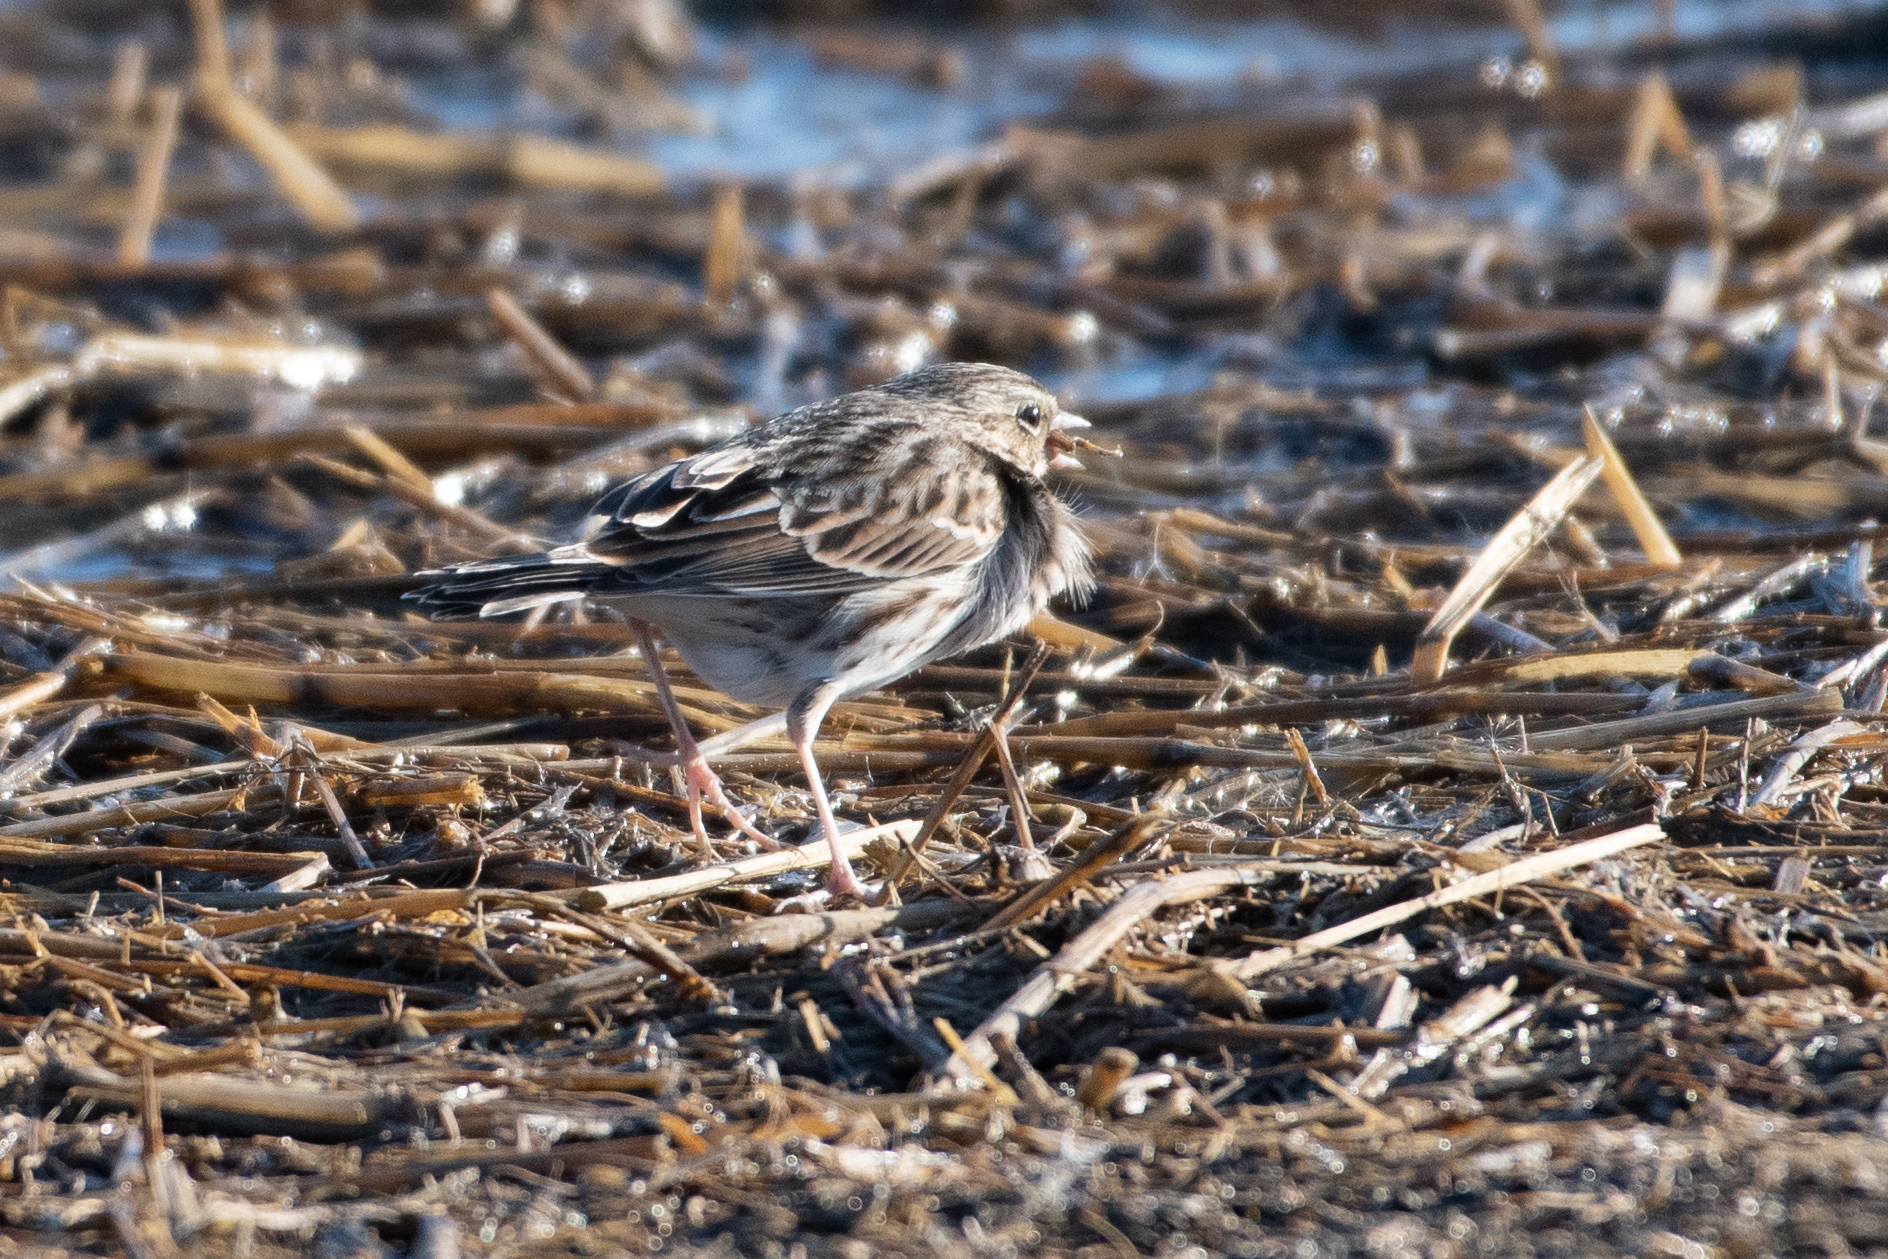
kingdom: Animalia
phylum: Chordata
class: Aves
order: Passeriformes
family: Passerellidae
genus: Passerculus
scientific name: Passerculus sandwichensis
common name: Savannah sparrow
